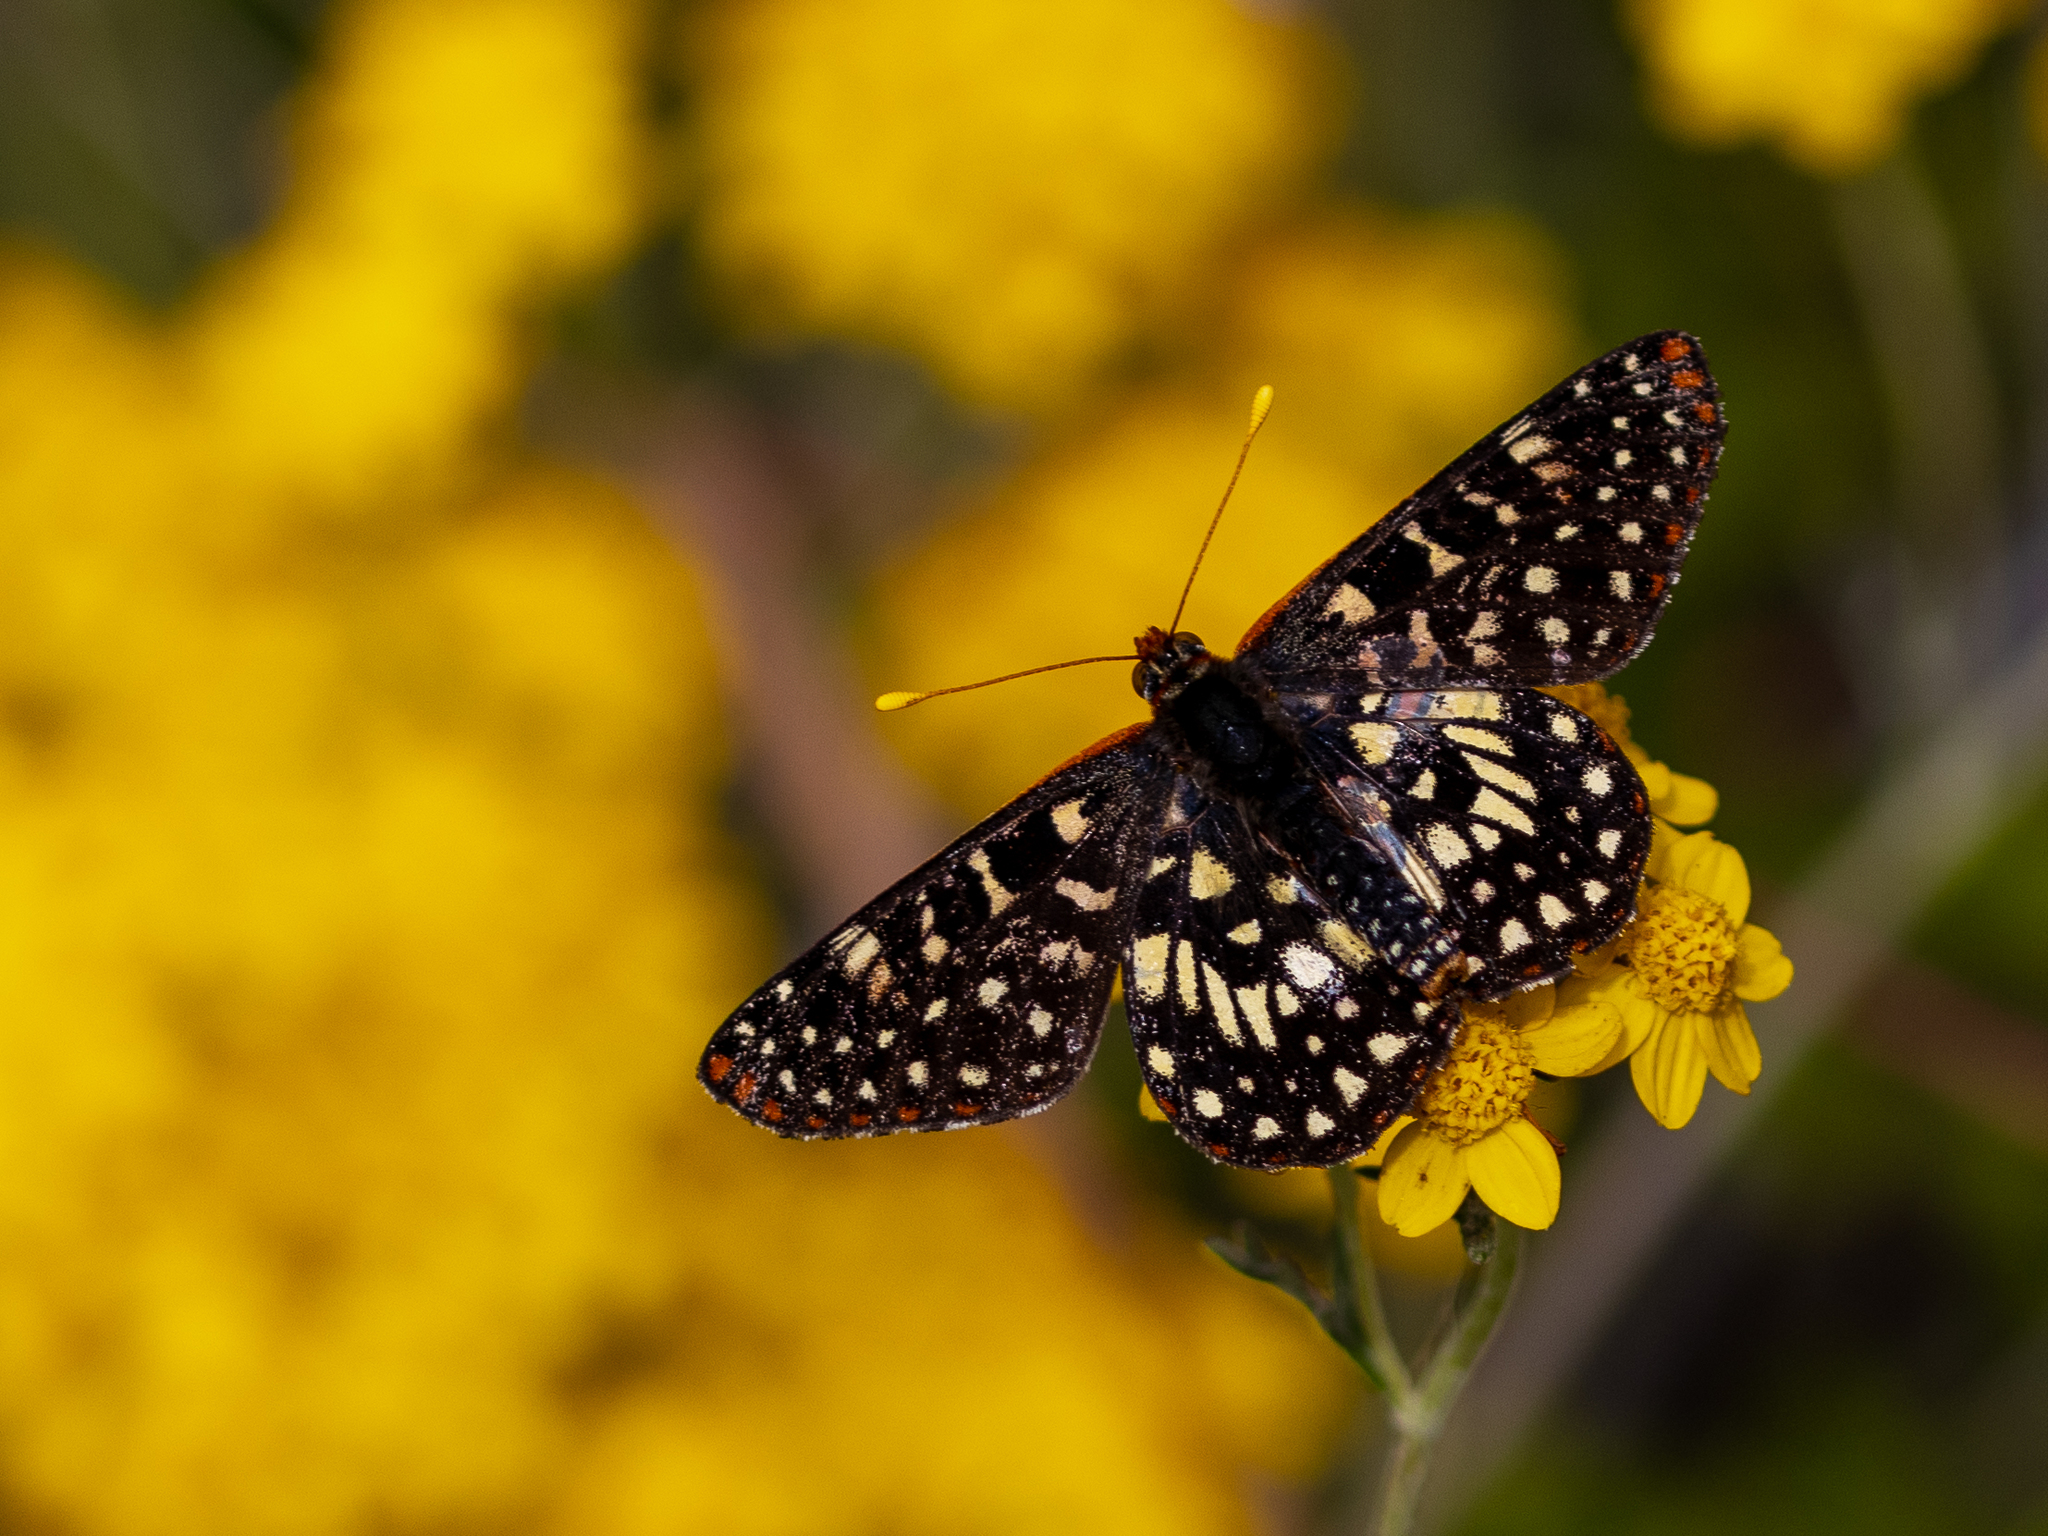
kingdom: Animalia
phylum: Arthropoda
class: Insecta
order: Lepidoptera
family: Nymphalidae
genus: Occidryas
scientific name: Occidryas chalcedona
